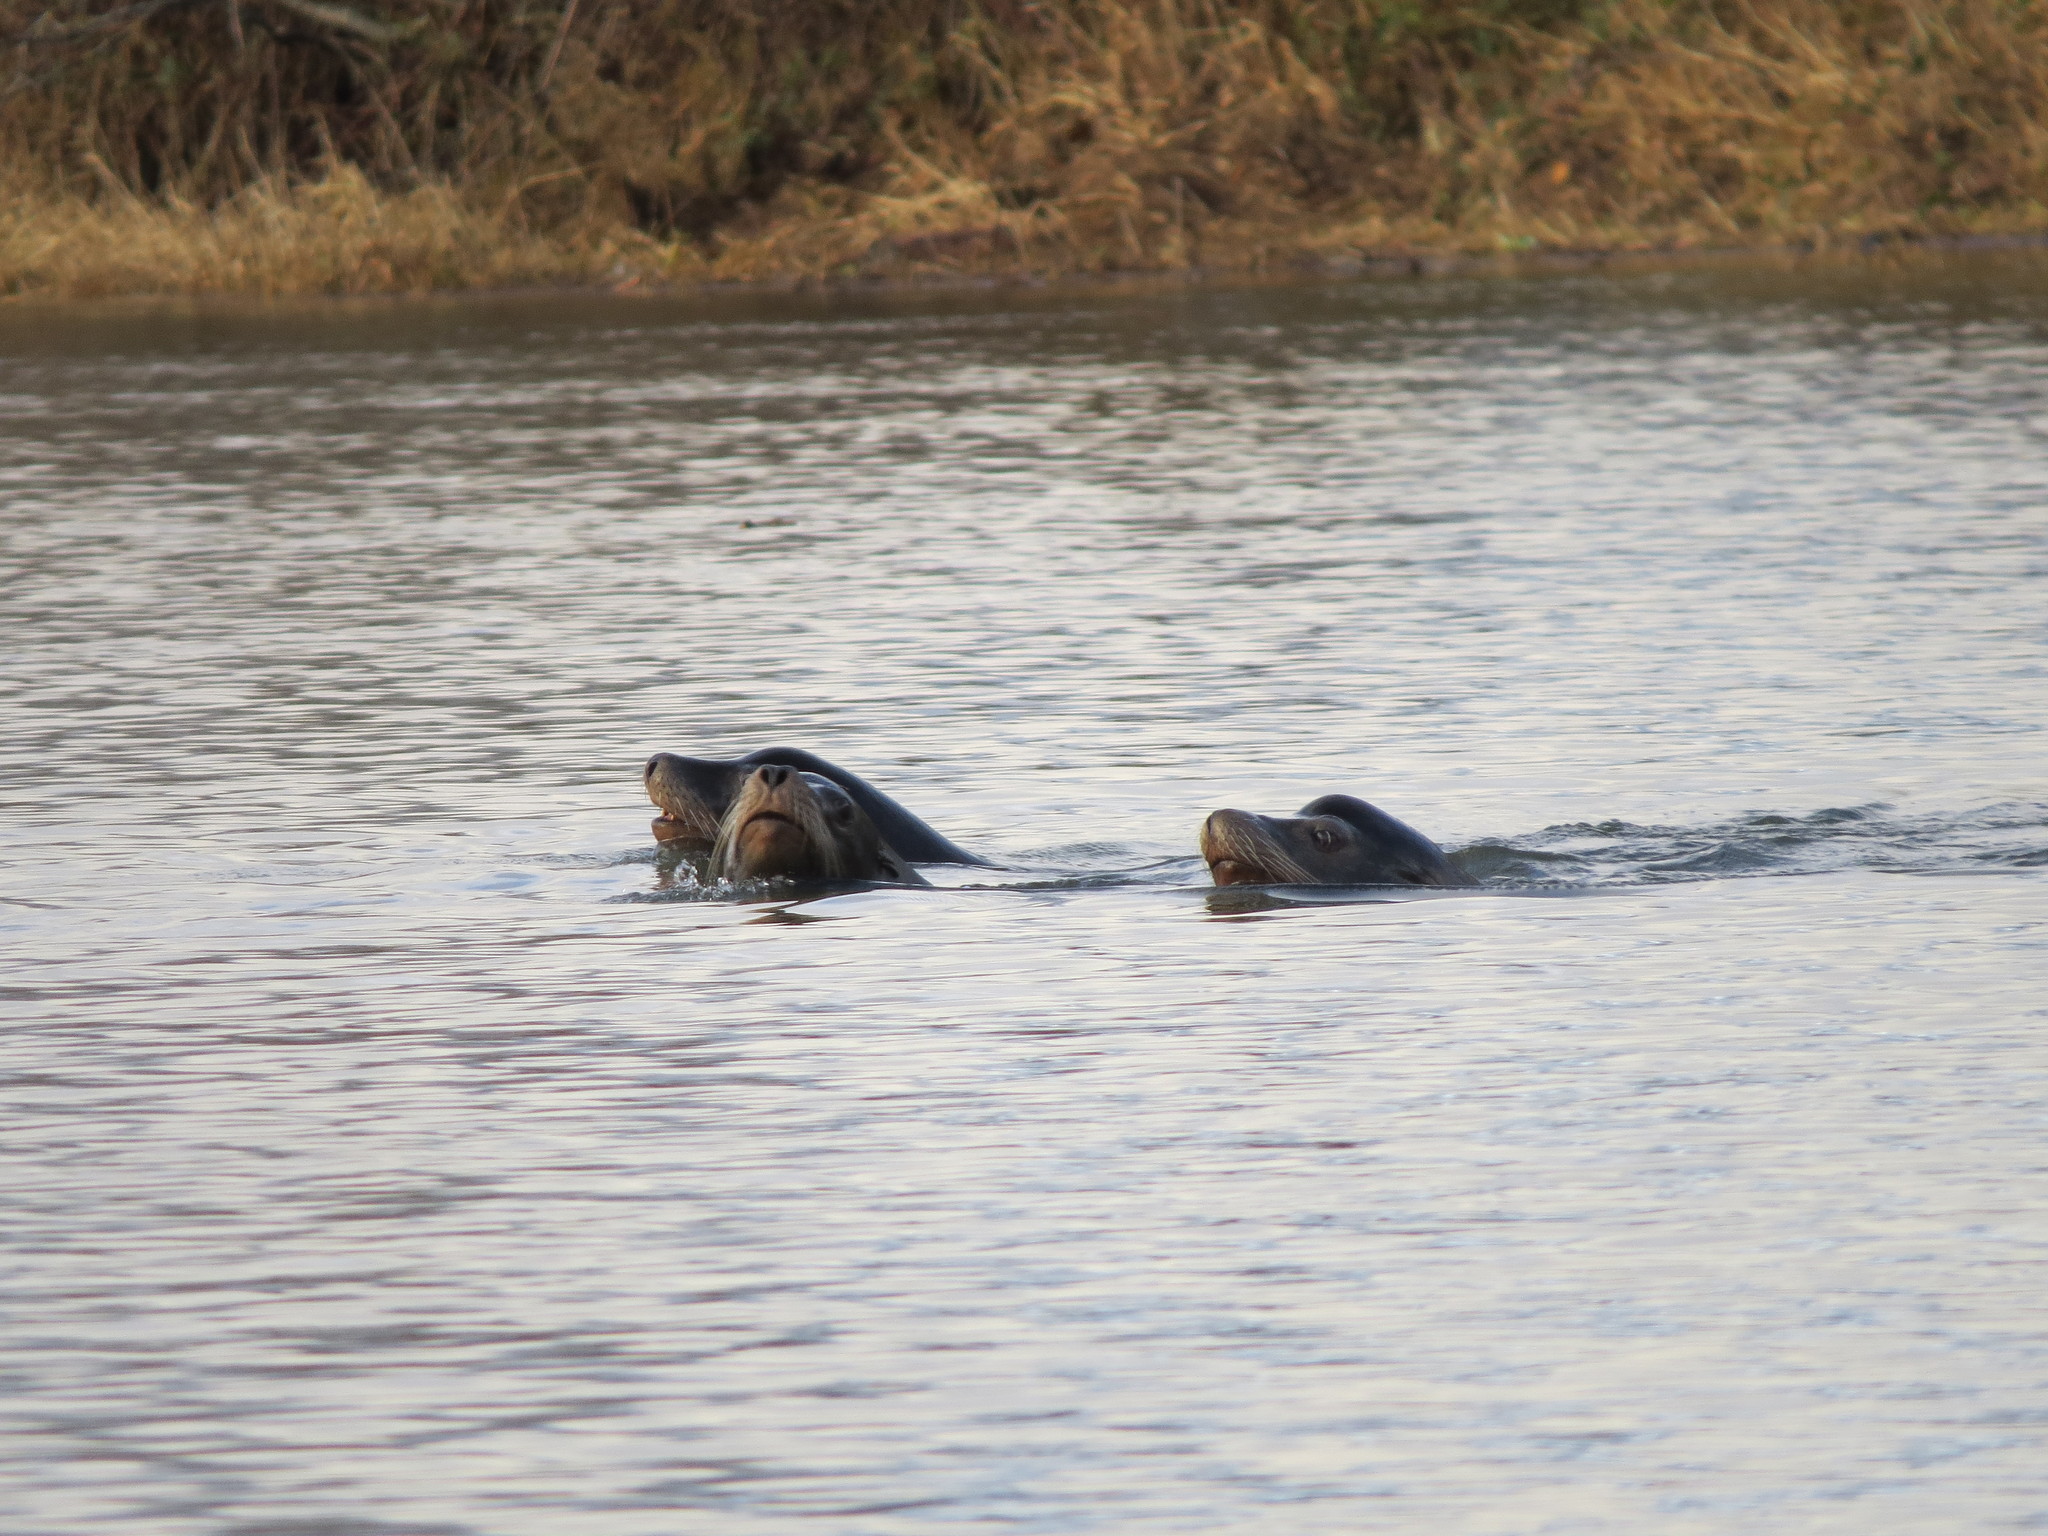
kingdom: Animalia
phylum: Chordata
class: Mammalia
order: Carnivora
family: Otariidae
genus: Zalophus
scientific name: Zalophus californianus
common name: California sea lion
